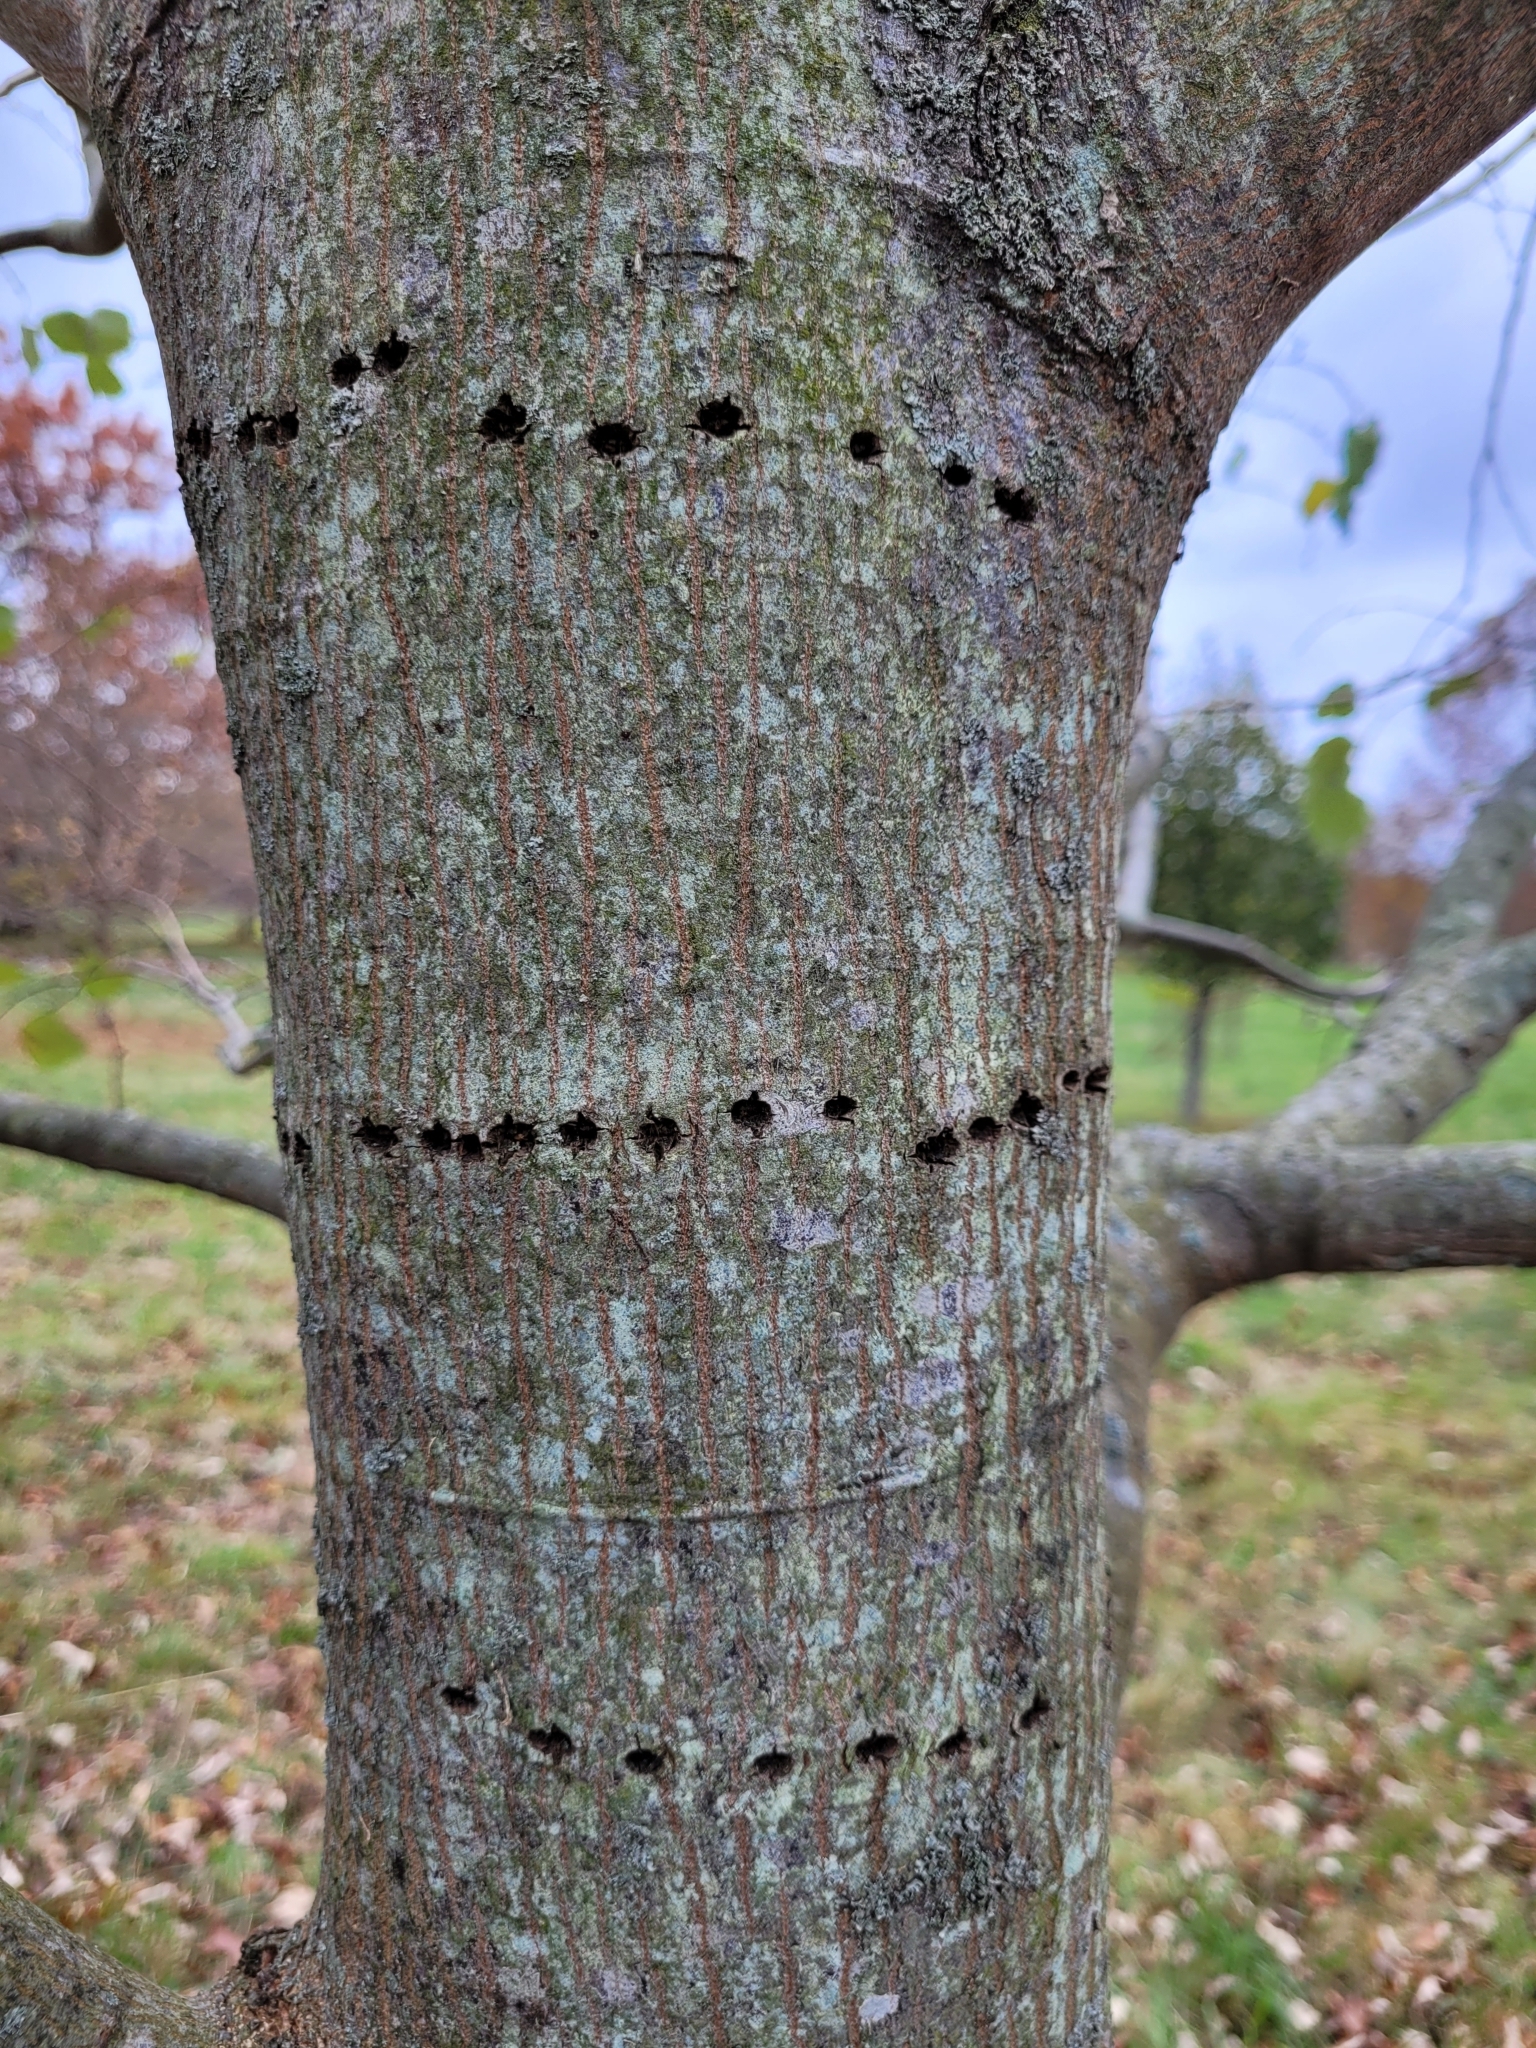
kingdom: Animalia
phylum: Chordata
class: Aves
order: Piciformes
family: Picidae
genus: Sphyrapicus
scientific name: Sphyrapicus varius
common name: Yellow-bellied sapsucker
